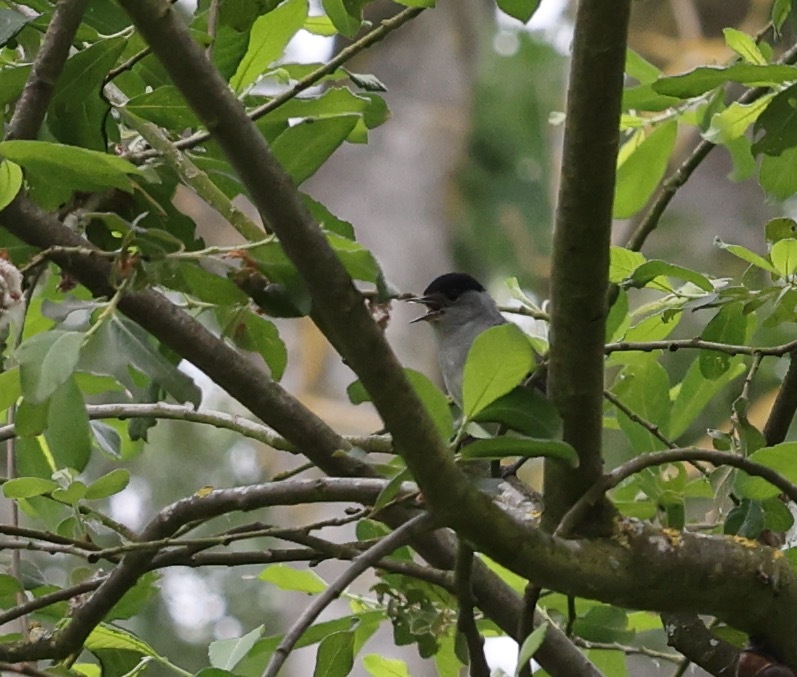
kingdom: Animalia
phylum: Chordata
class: Aves
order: Passeriformes
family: Sylviidae
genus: Sylvia
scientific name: Sylvia atricapilla
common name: Eurasian blackcap
